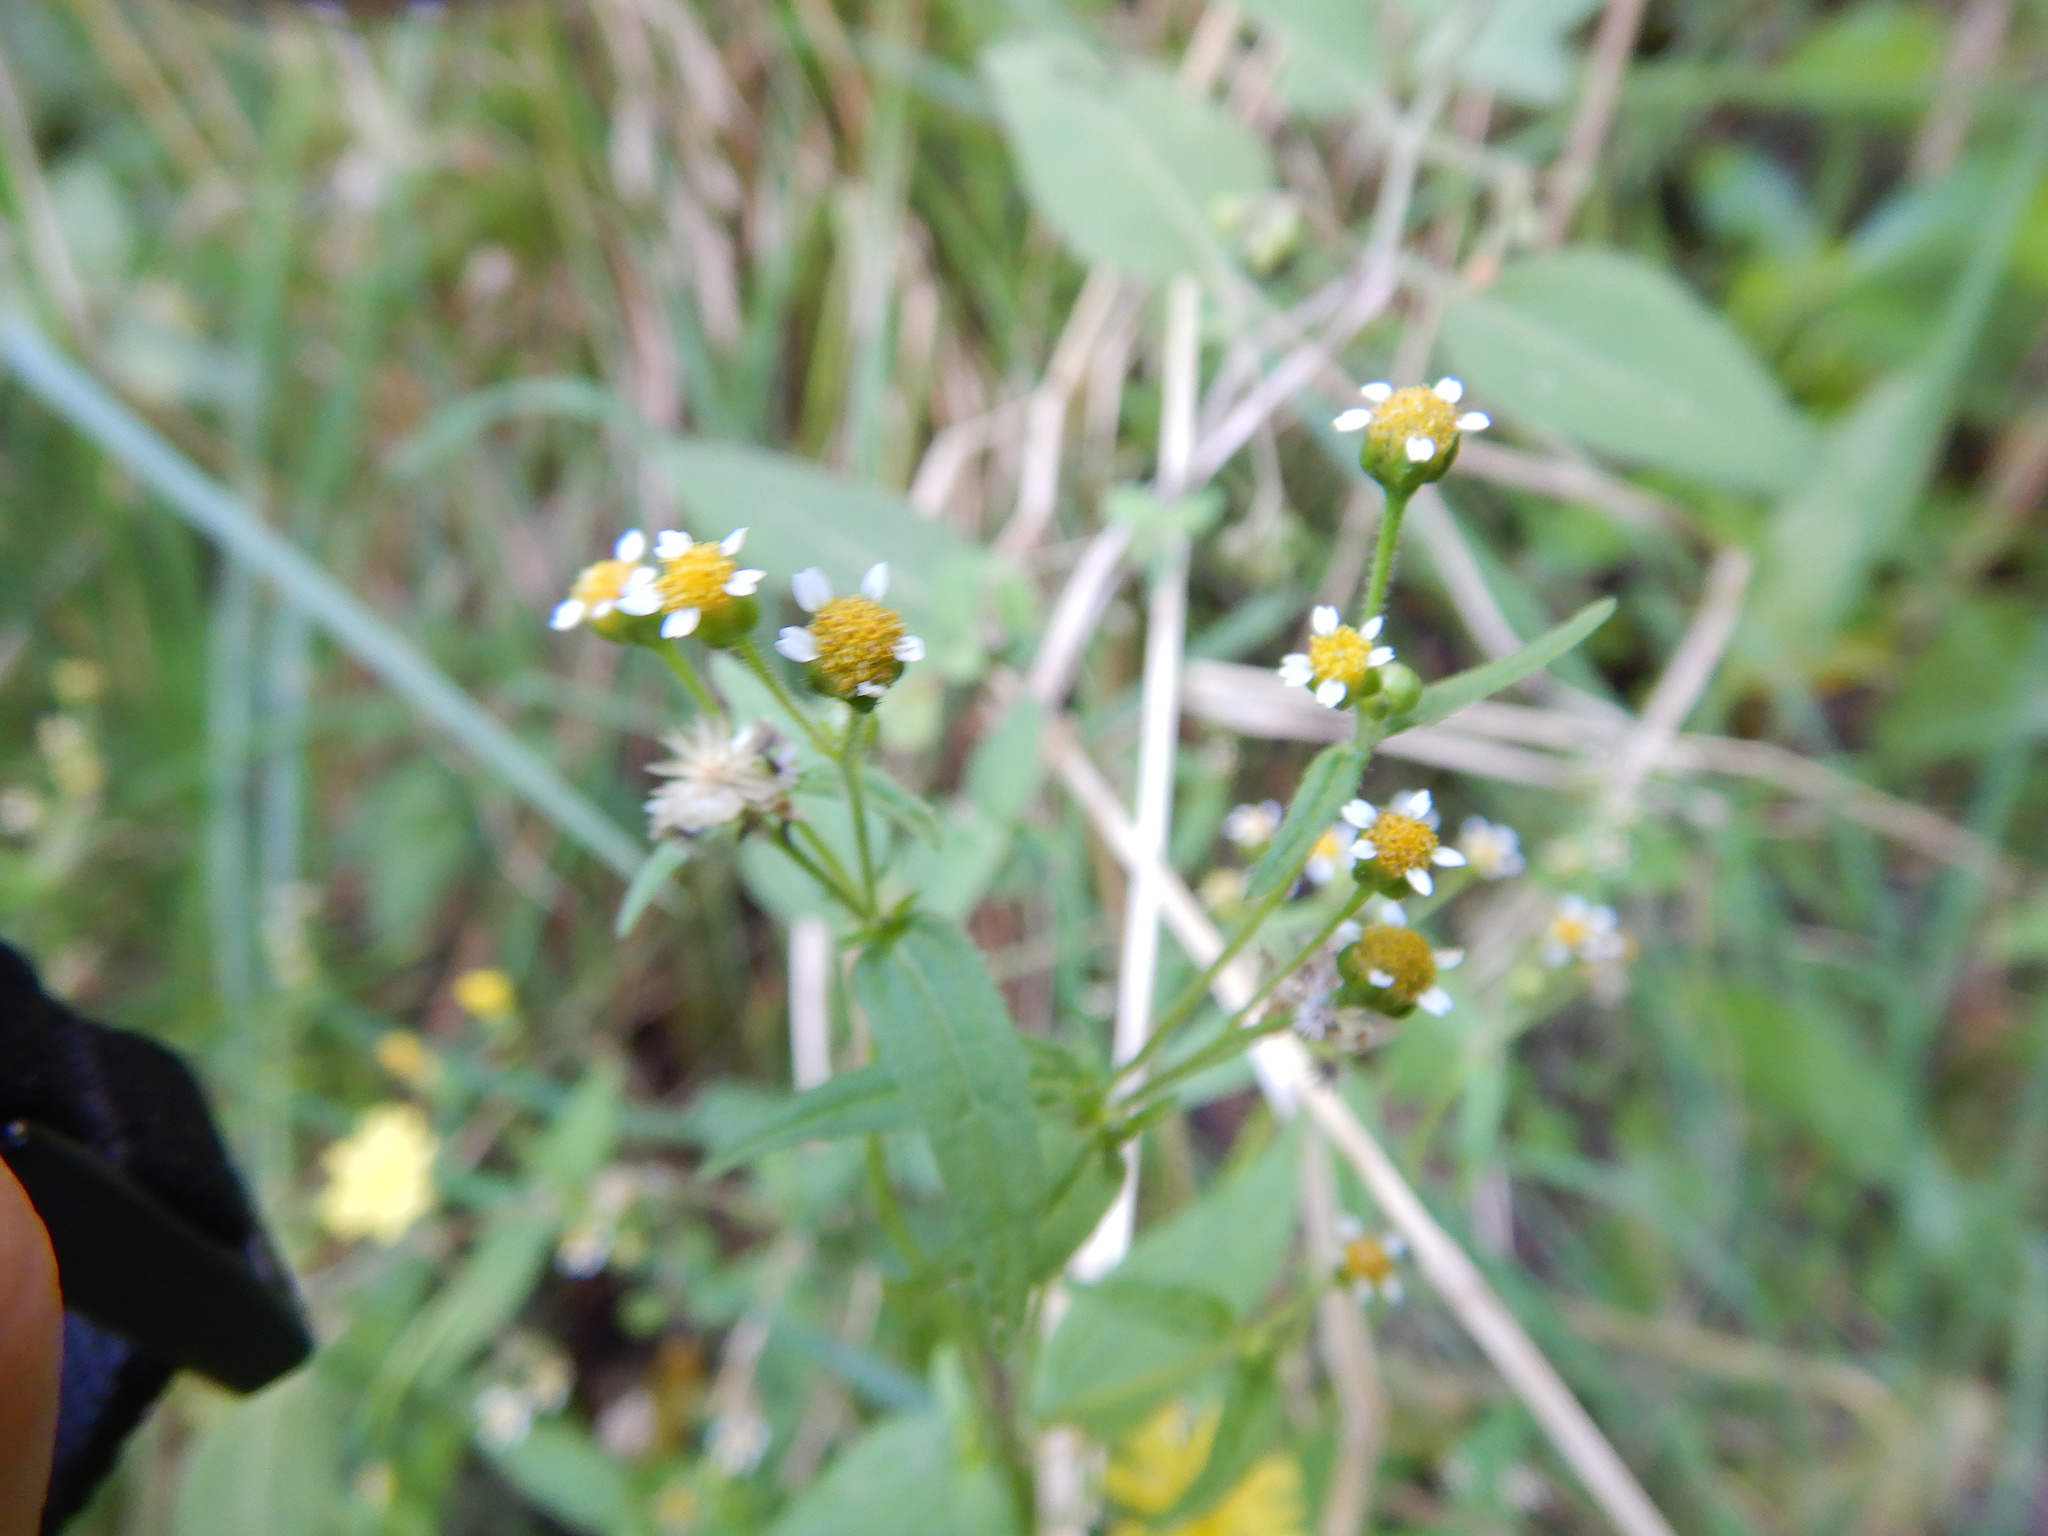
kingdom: Plantae
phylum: Tracheophyta
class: Magnoliopsida
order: Asterales
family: Asteraceae
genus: Galinsoga
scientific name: Galinsoga parviflora
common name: Gallant soldier
